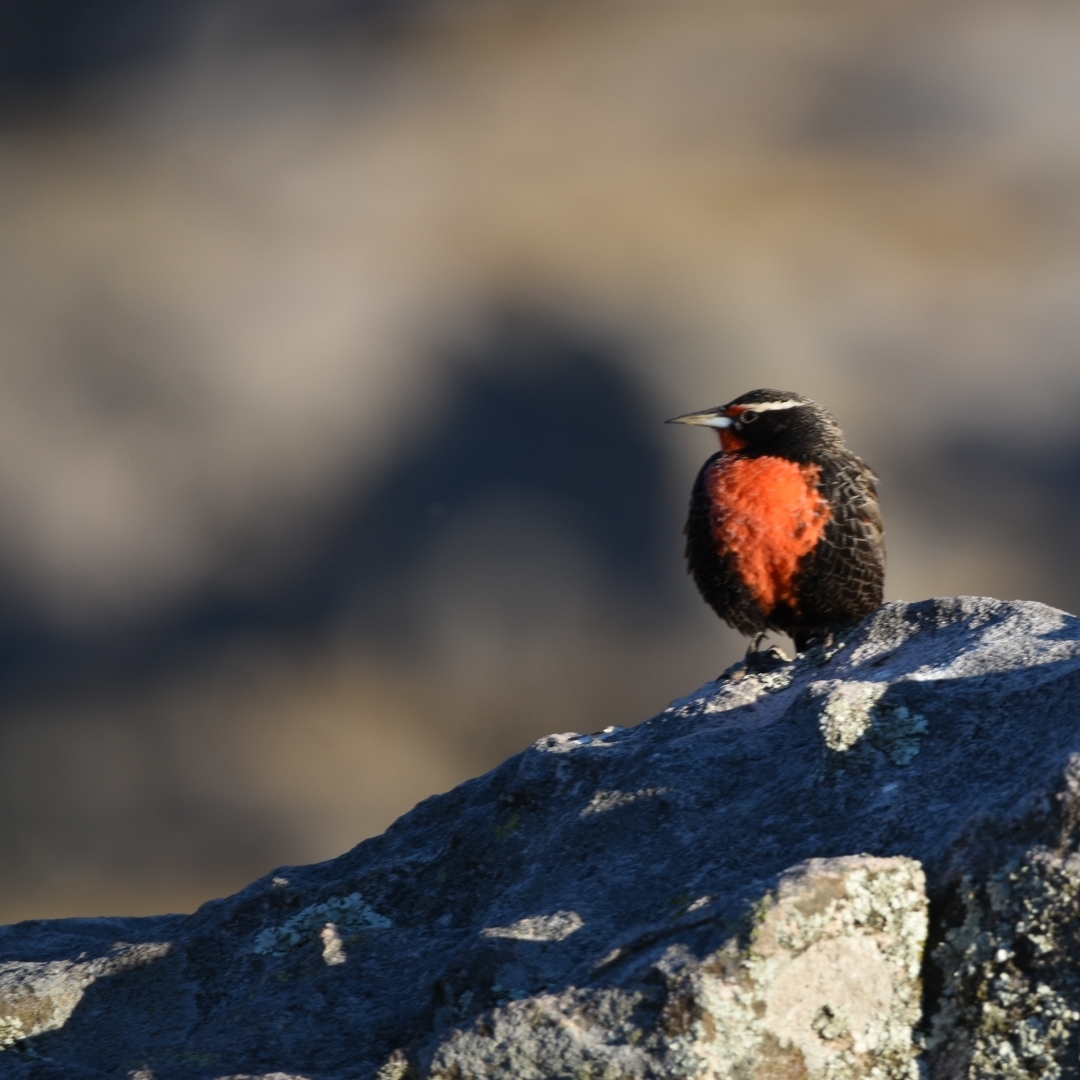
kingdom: Animalia
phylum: Chordata
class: Aves
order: Passeriformes
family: Icteridae
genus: Sturnella
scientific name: Sturnella loyca
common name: Long-tailed meadowlark
